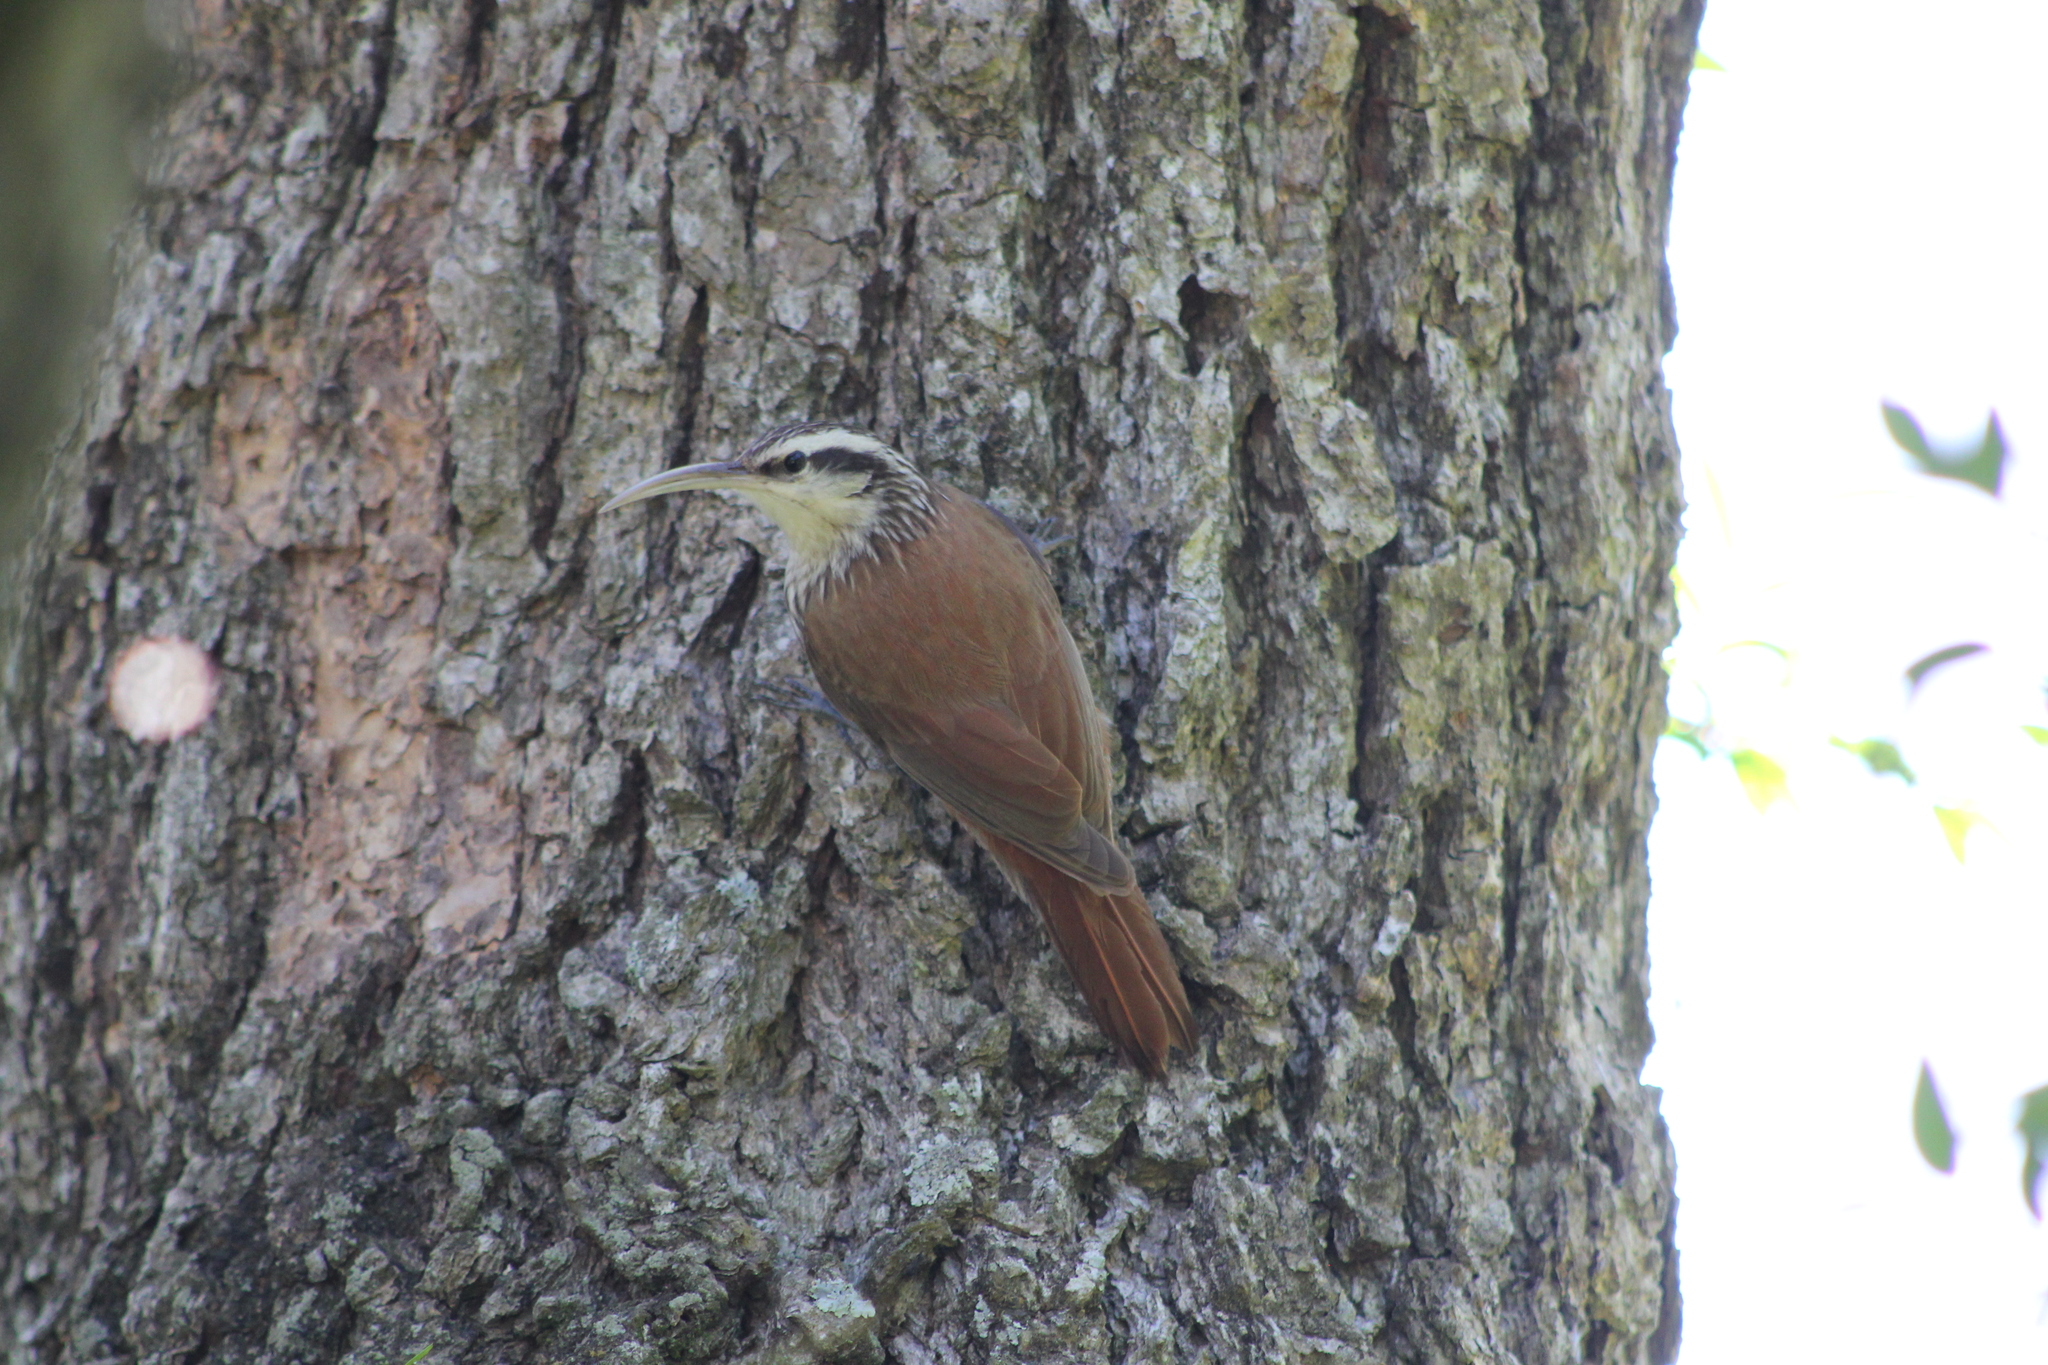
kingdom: Animalia
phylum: Chordata
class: Aves
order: Passeriformes
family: Furnariidae
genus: Lepidocolaptes
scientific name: Lepidocolaptes angustirostris
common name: Narrow-billed woodcreeper
